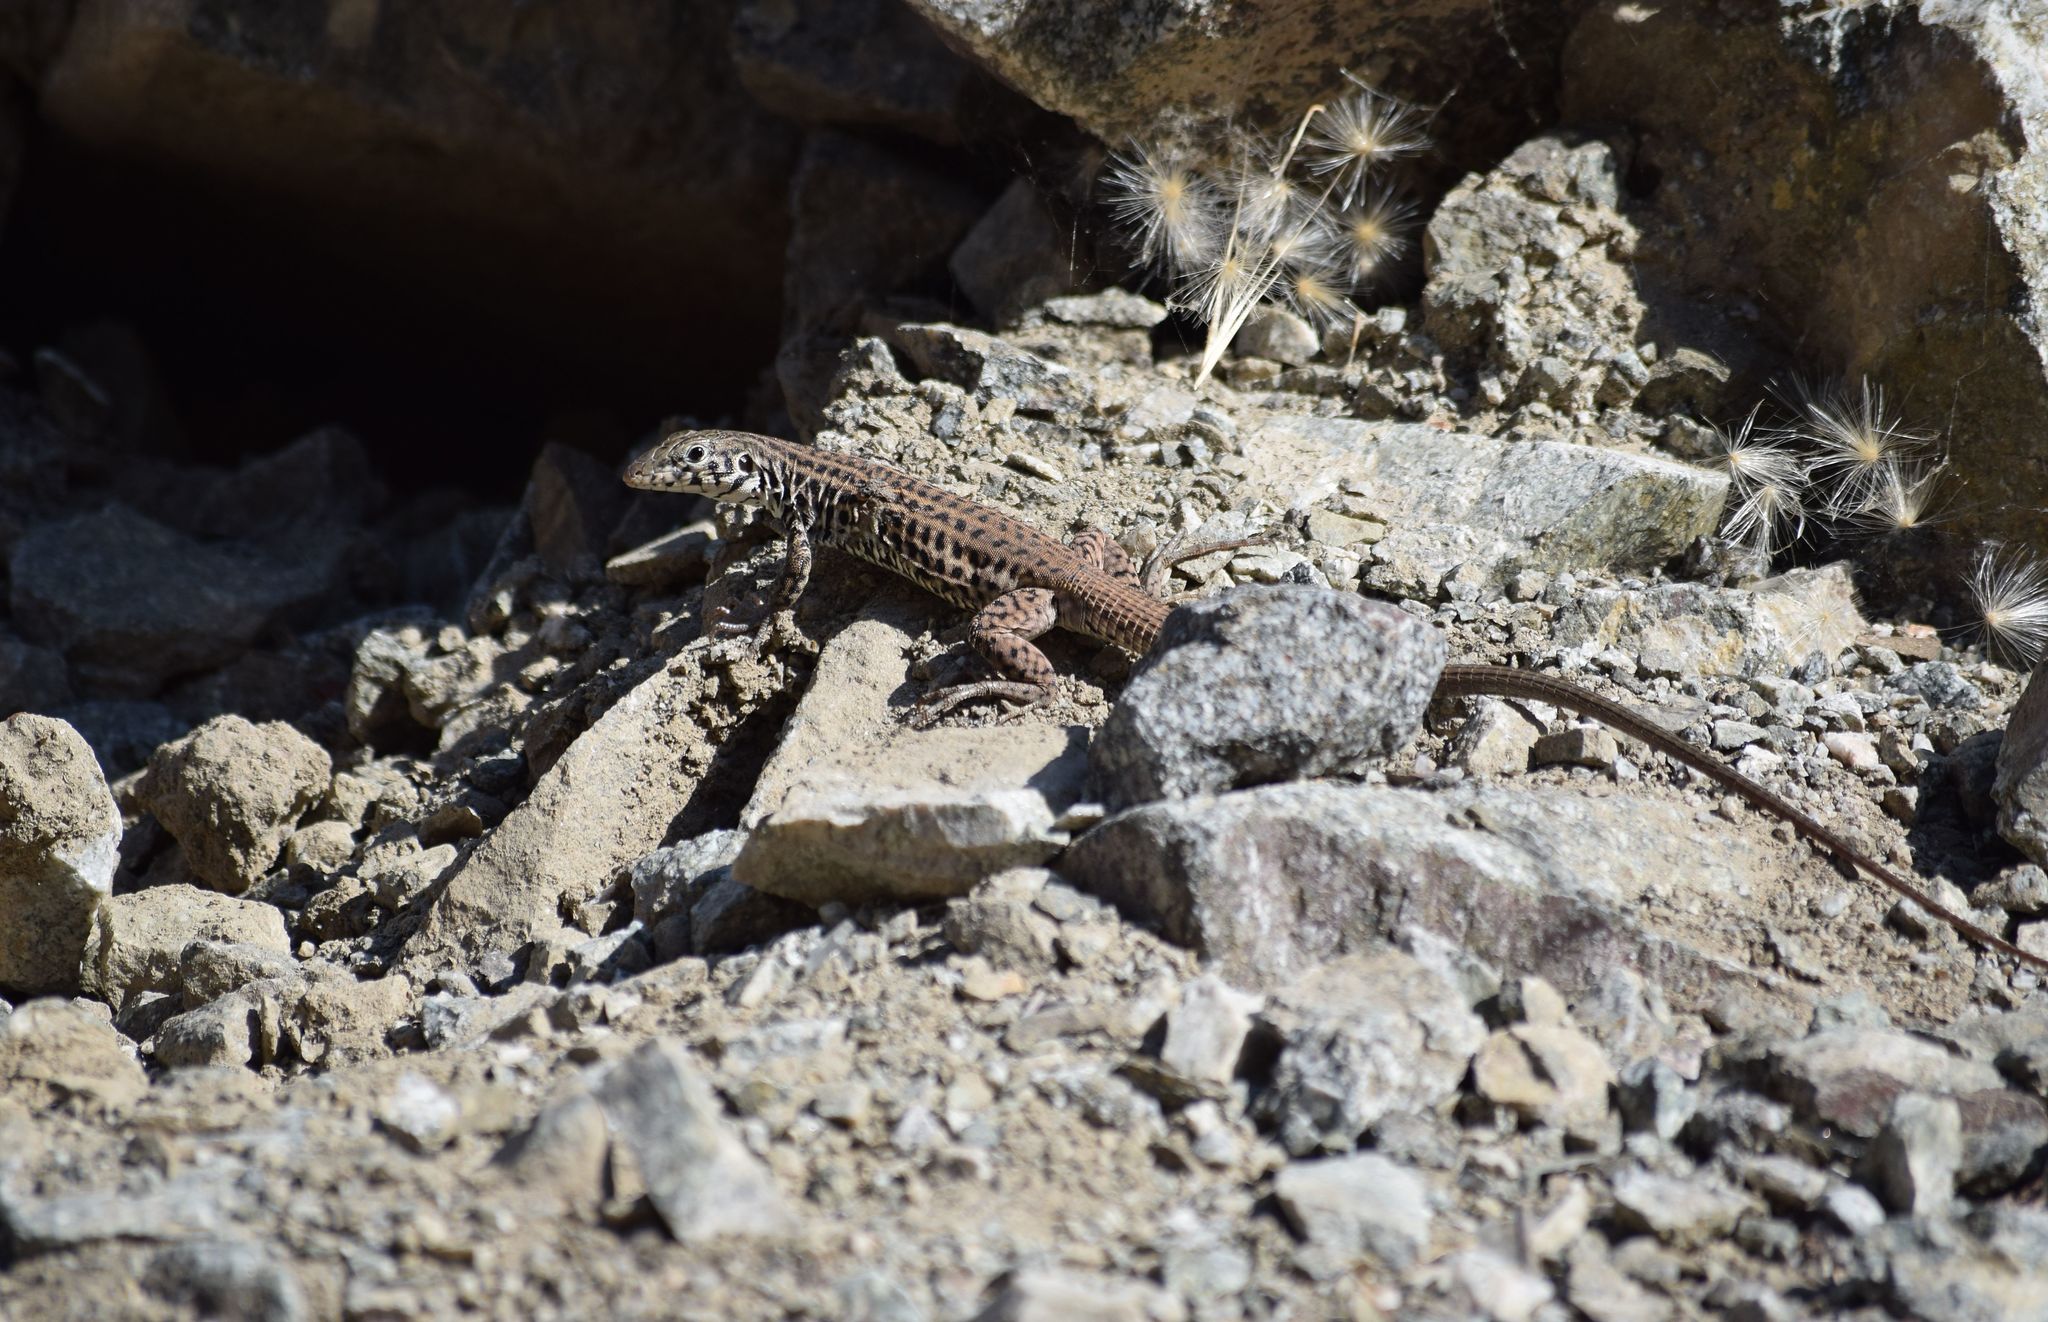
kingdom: Animalia
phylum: Chordata
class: Squamata
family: Teiidae
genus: Aspidoscelis
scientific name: Aspidoscelis tigris
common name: Tiger whiptail
